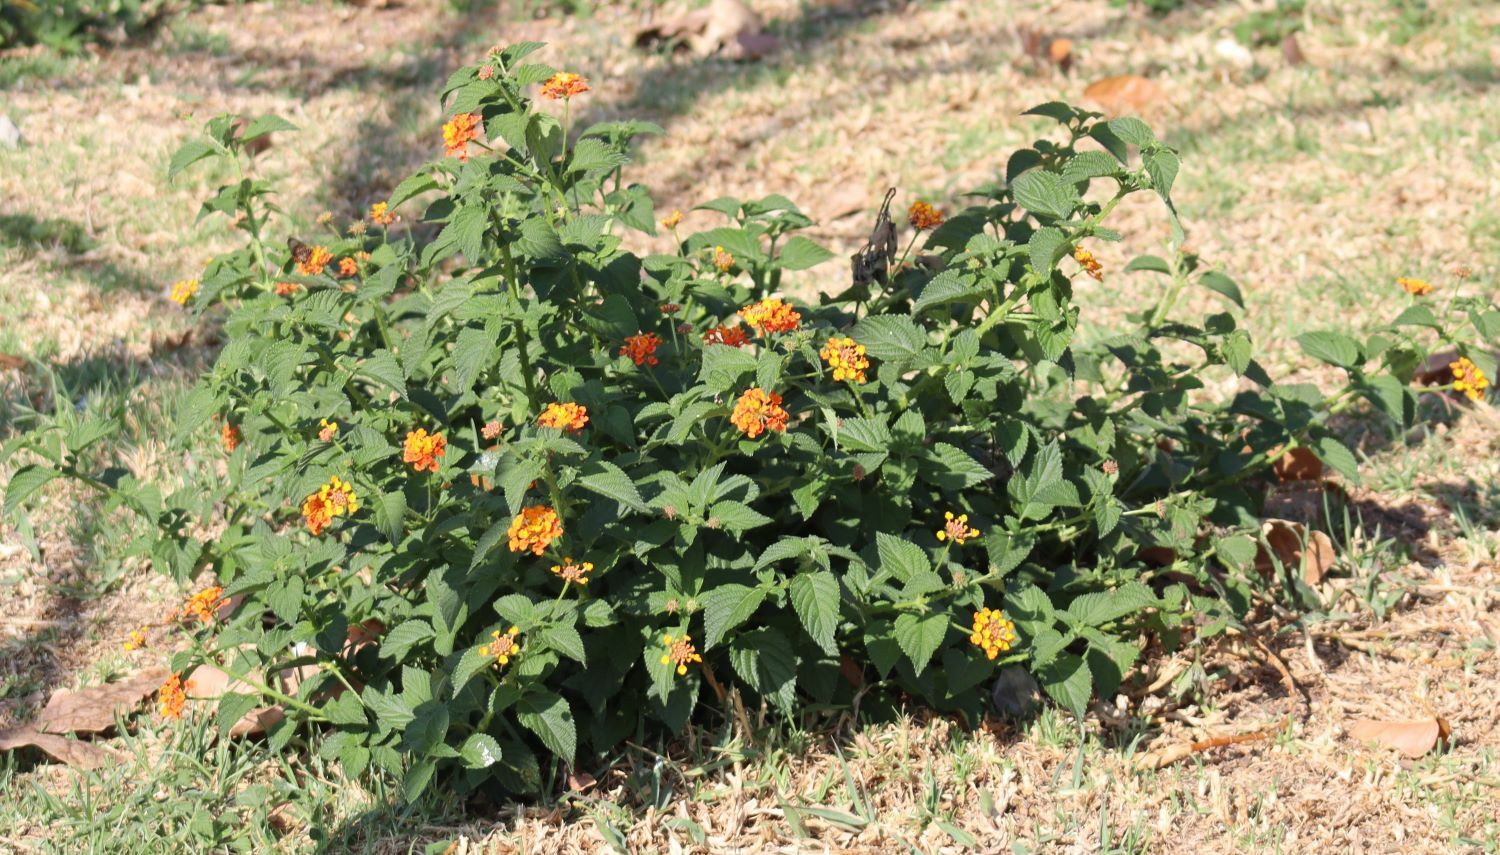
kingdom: Plantae
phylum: Tracheophyta
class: Magnoliopsida
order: Lamiales
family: Verbenaceae
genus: Lantana
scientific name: Lantana camara
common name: Lantana
